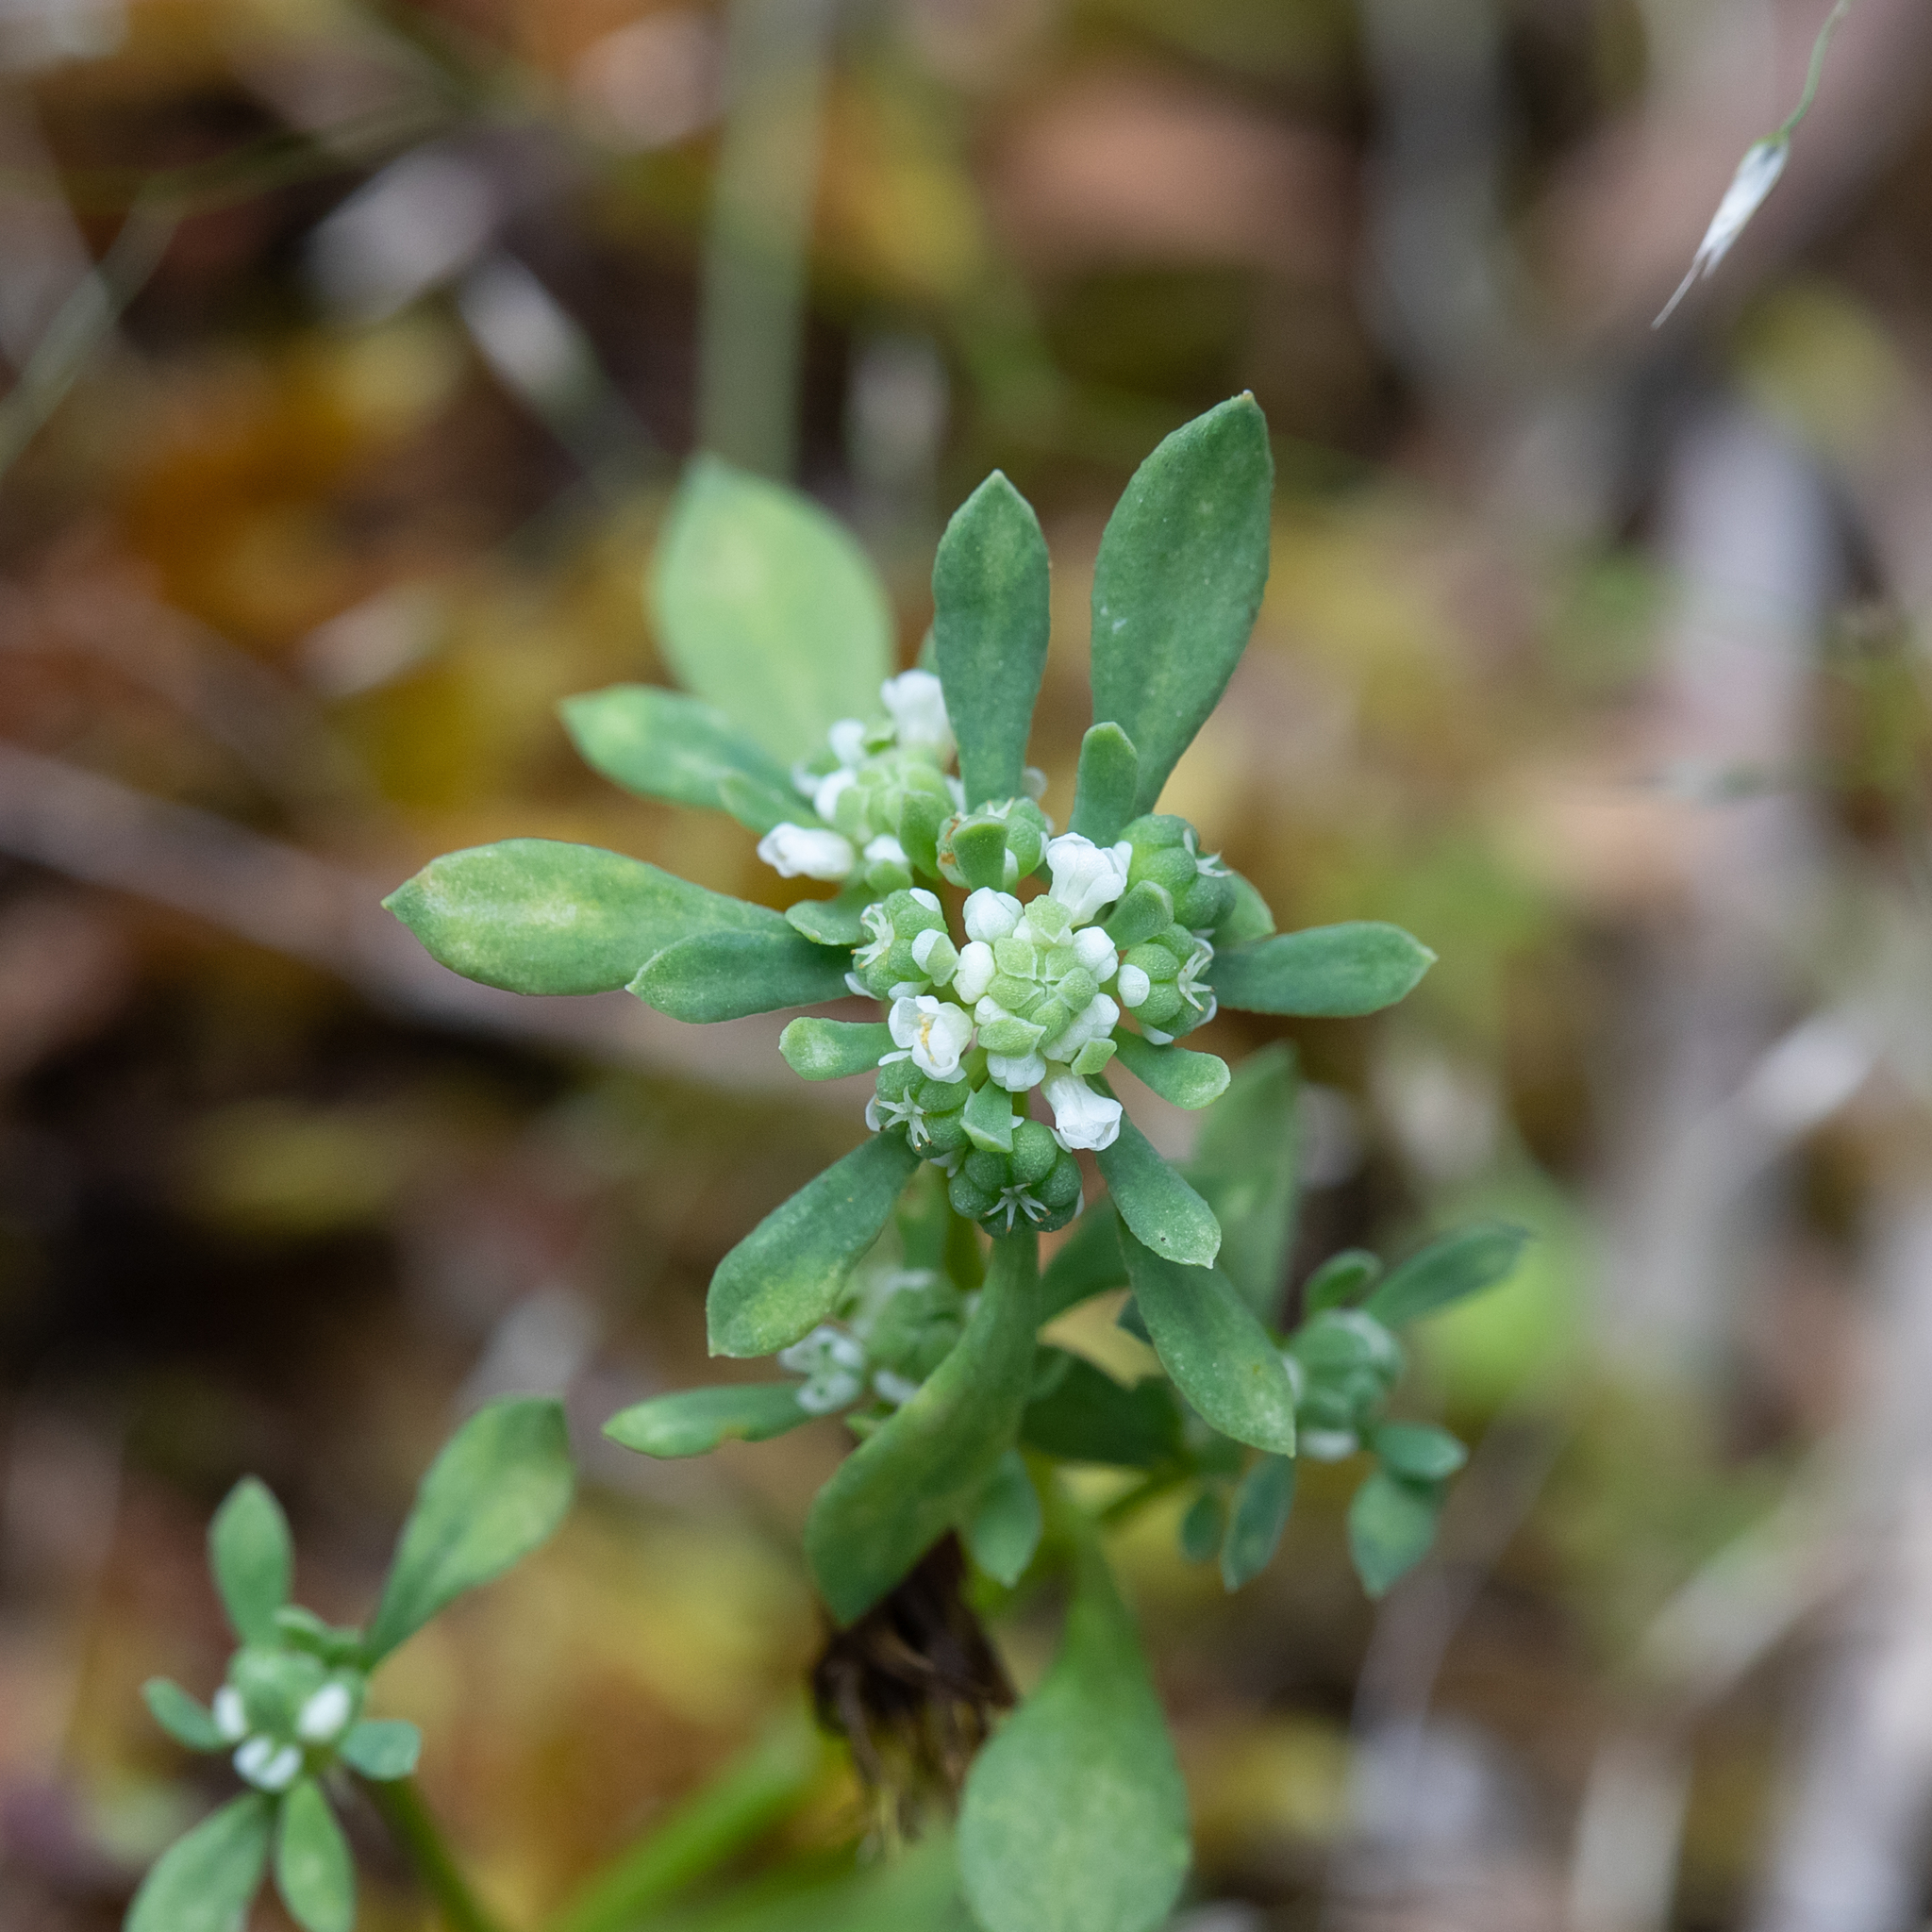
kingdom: Plantae
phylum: Tracheophyta
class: Magnoliopsida
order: Malpighiales
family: Phyllanthaceae
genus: Poranthera
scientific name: Poranthera microphylla
